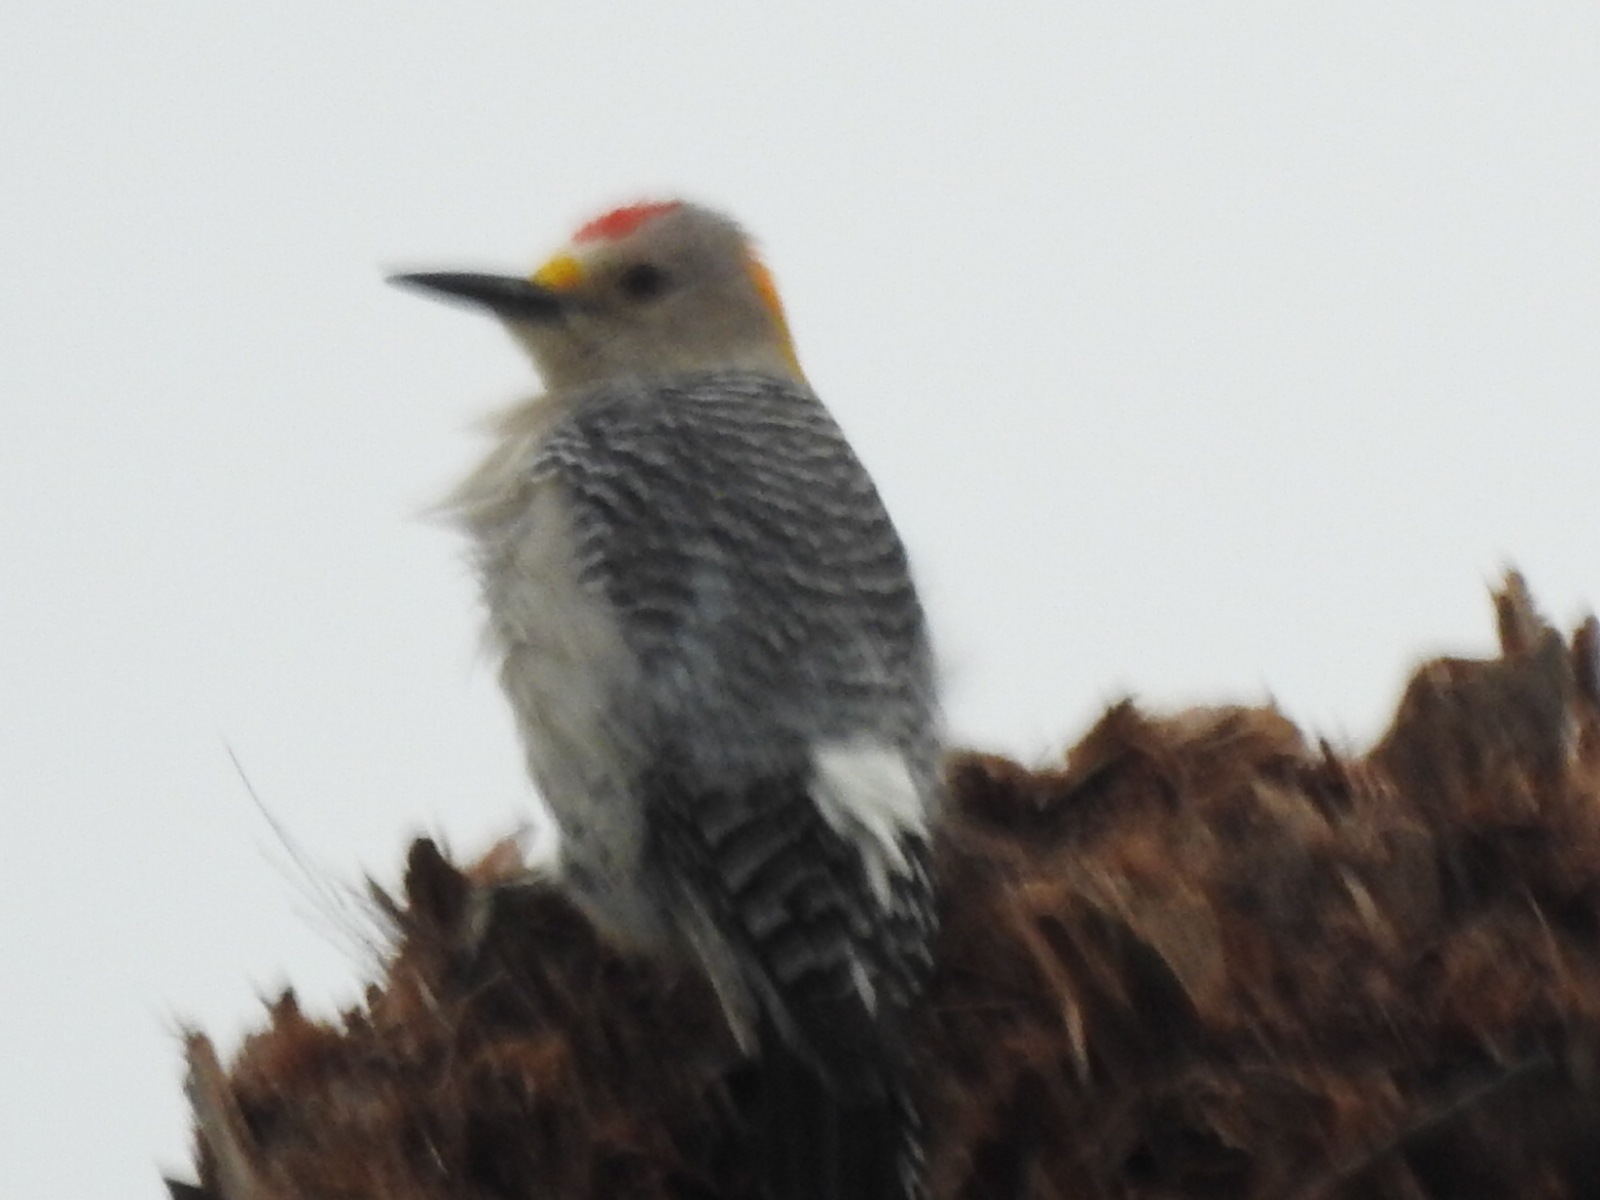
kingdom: Animalia
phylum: Chordata
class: Aves
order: Piciformes
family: Picidae
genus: Melanerpes
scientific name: Melanerpes aurifrons
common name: Golden-fronted woodpecker
